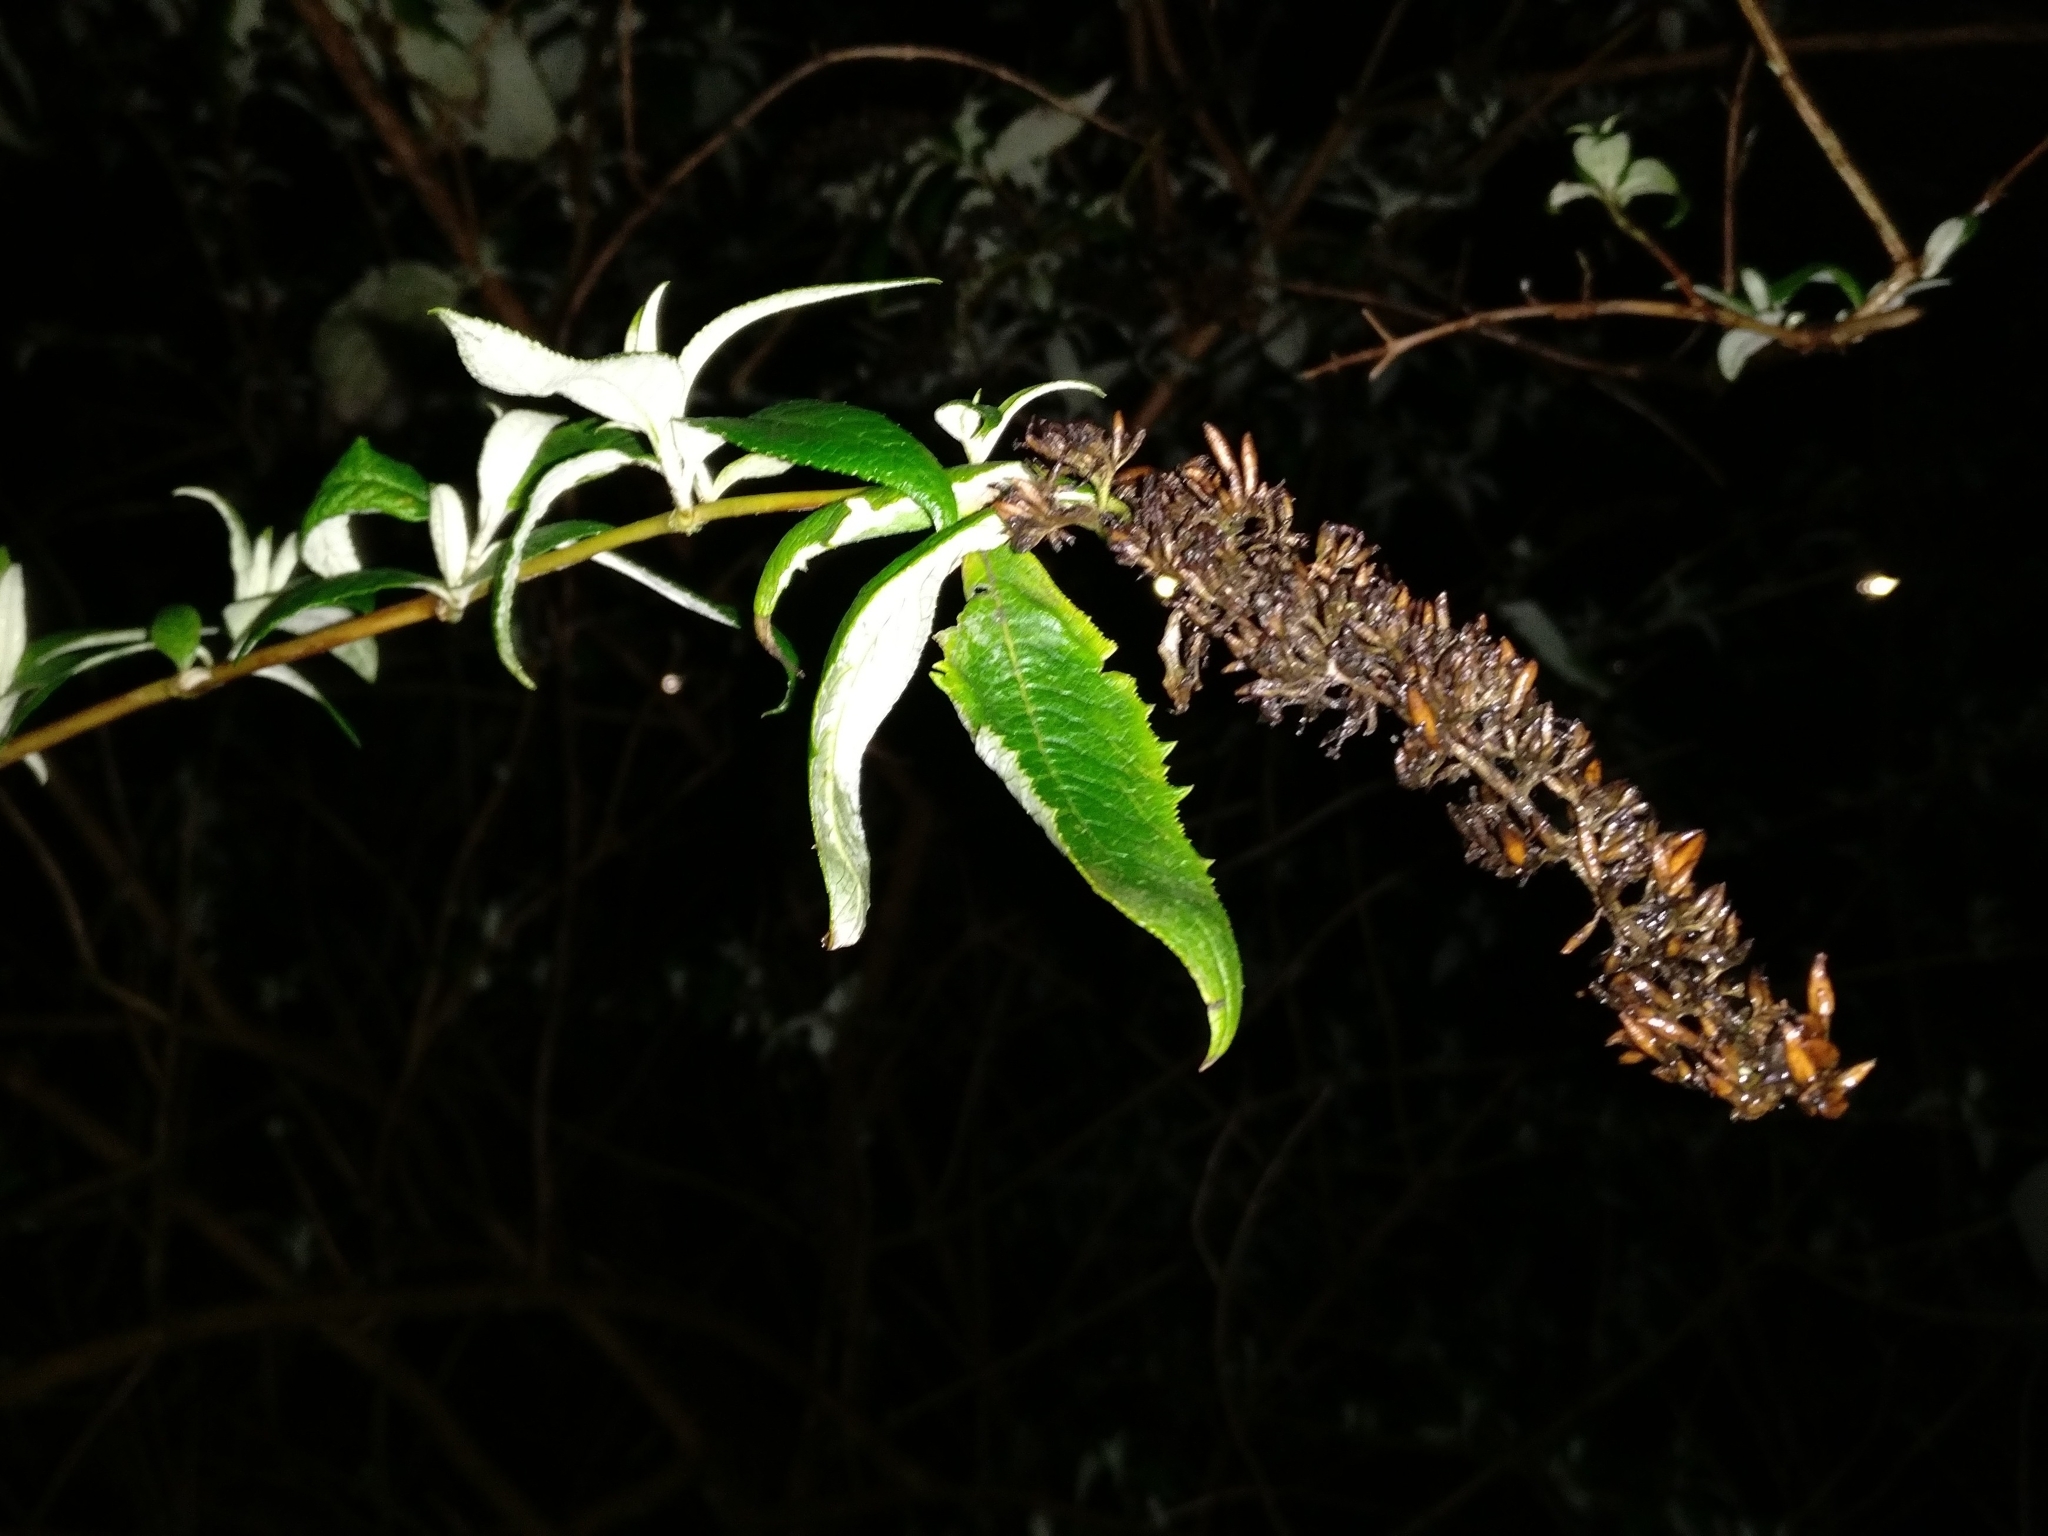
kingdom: Plantae
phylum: Tracheophyta
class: Magnoliopsida
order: Lamiales
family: Scrophulariaceae
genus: Buddleja
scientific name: Buddleja davidii
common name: Butterfly-bush
